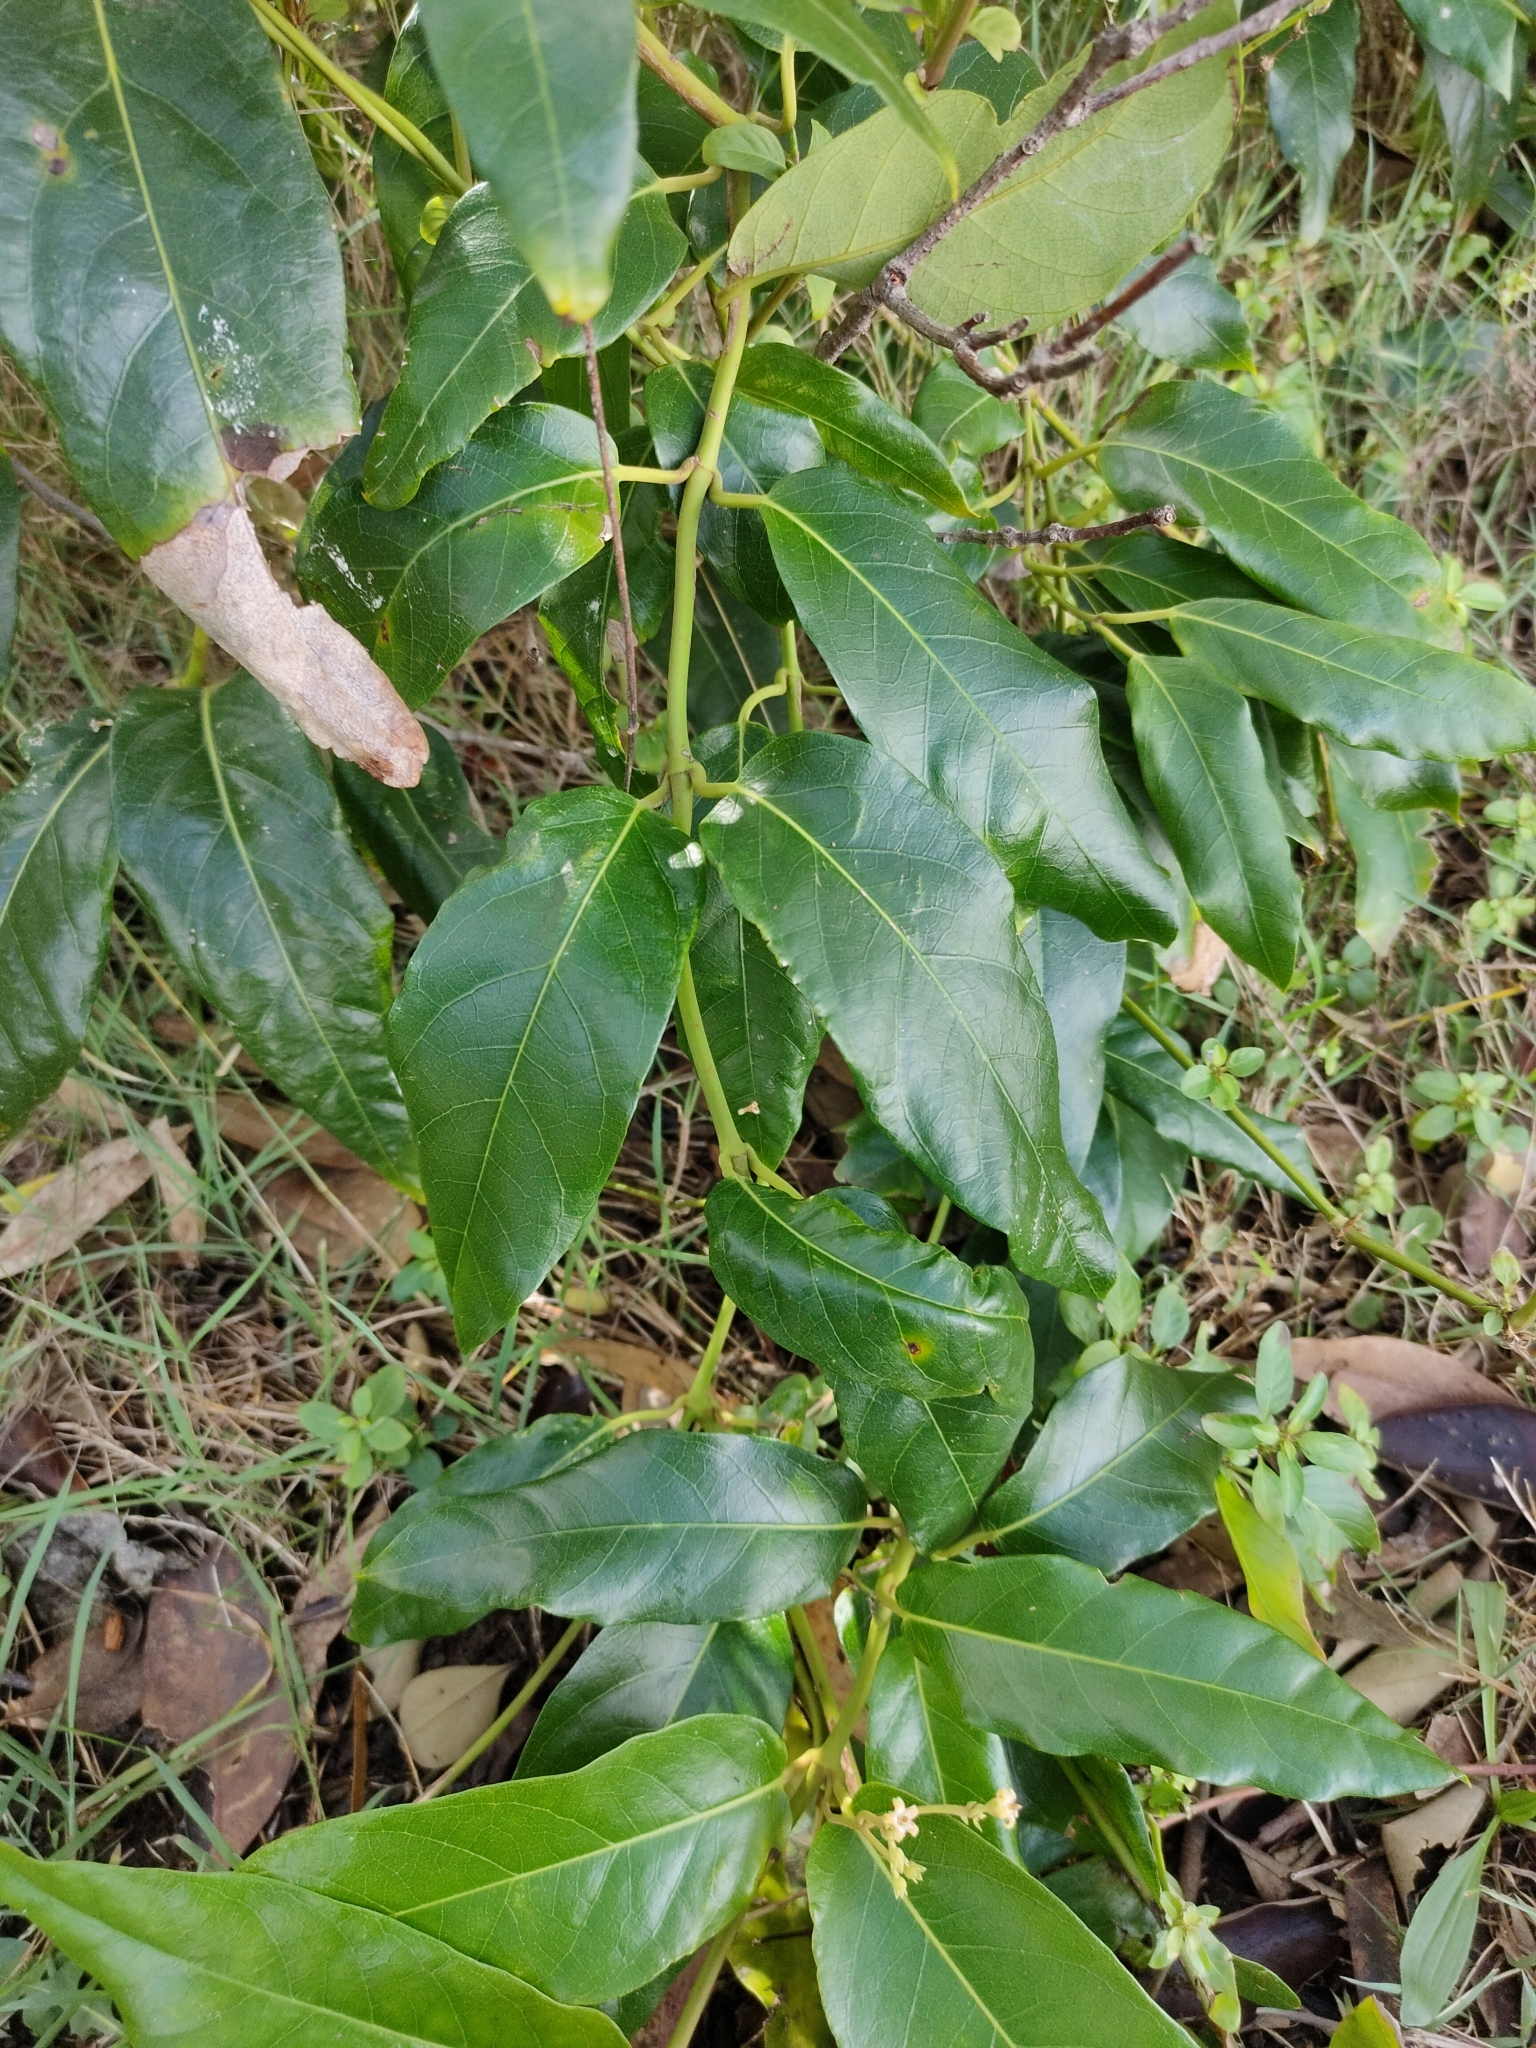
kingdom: Plantae
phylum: Tracheophyta
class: Magnoliopsida
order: Gentianales
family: Apocynaceae
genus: Parsonsia
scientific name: Parsonsia straminea
